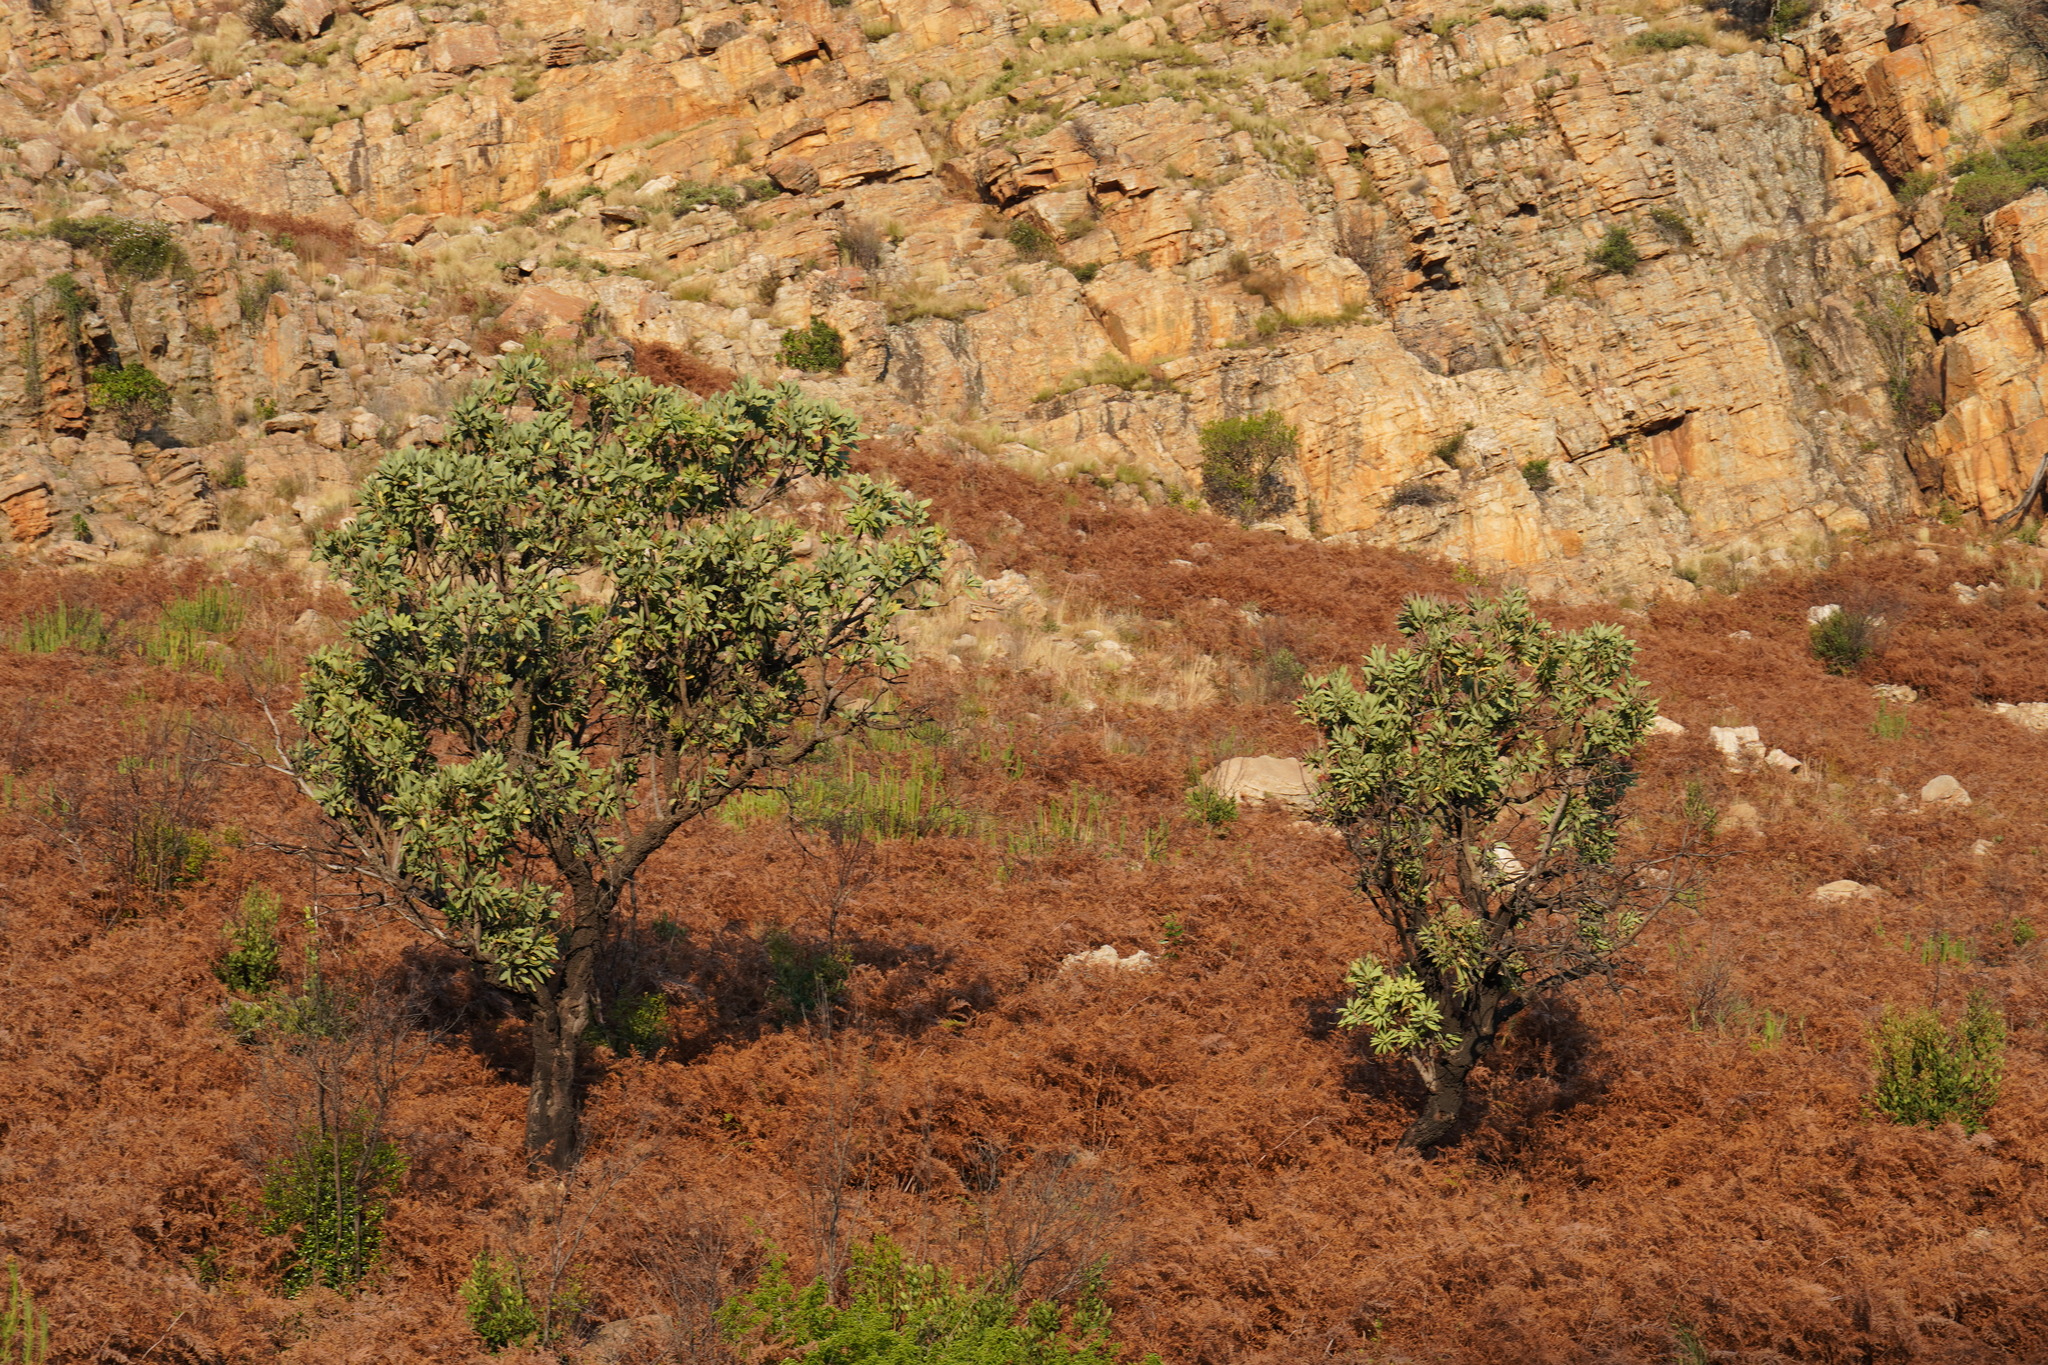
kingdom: Plantae
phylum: Tracheophyta
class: Magnoliopsida
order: Proteales
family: Proteaceae
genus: Protea
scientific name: Protea caffra
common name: Common sugarbush
